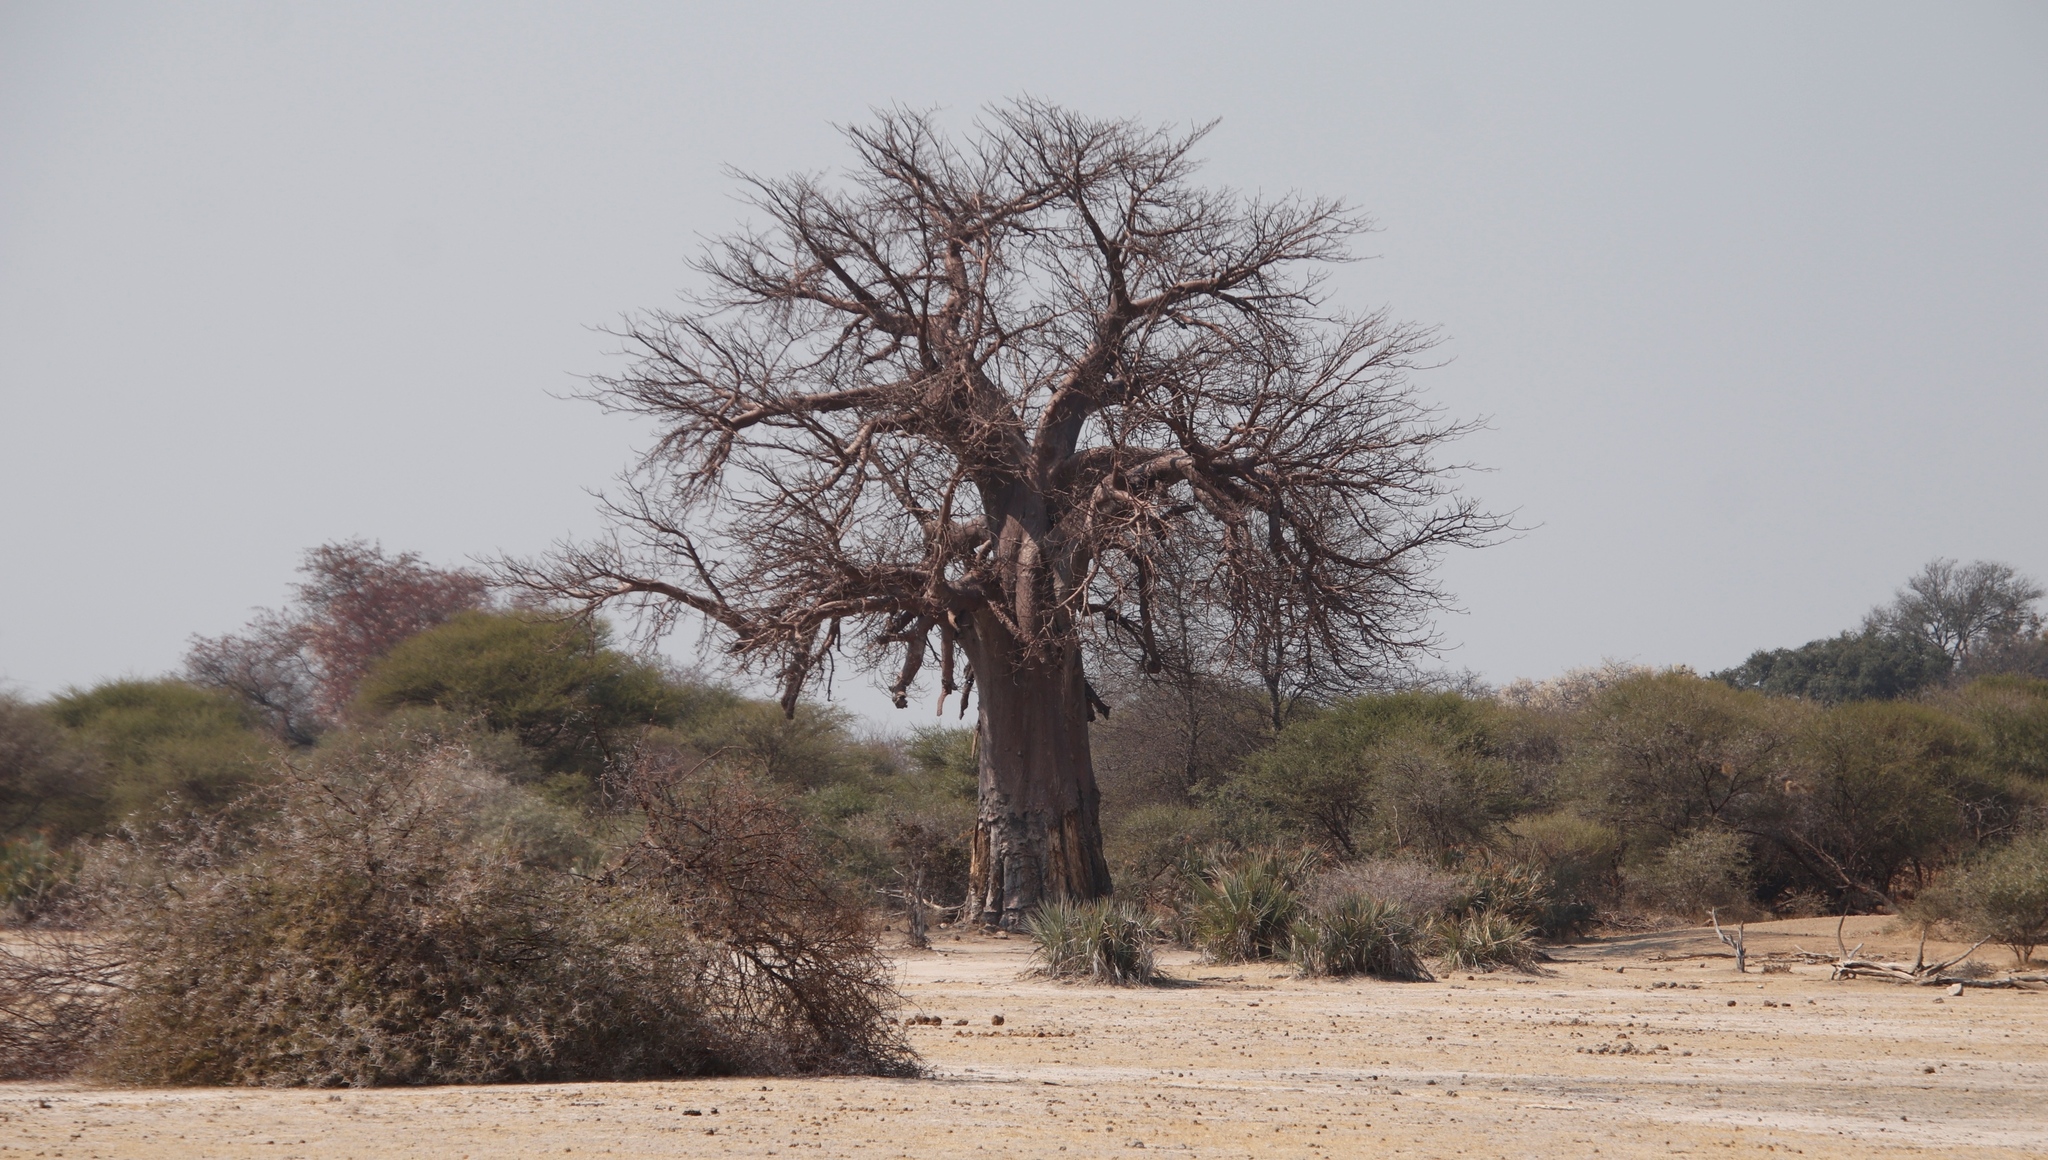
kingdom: Plantae
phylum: Tracheophyta
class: Magnoliopsida
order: Malvales
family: Malvaceae
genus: Adansonia
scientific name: Adansonia digitata
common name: Dead-rat-tree
